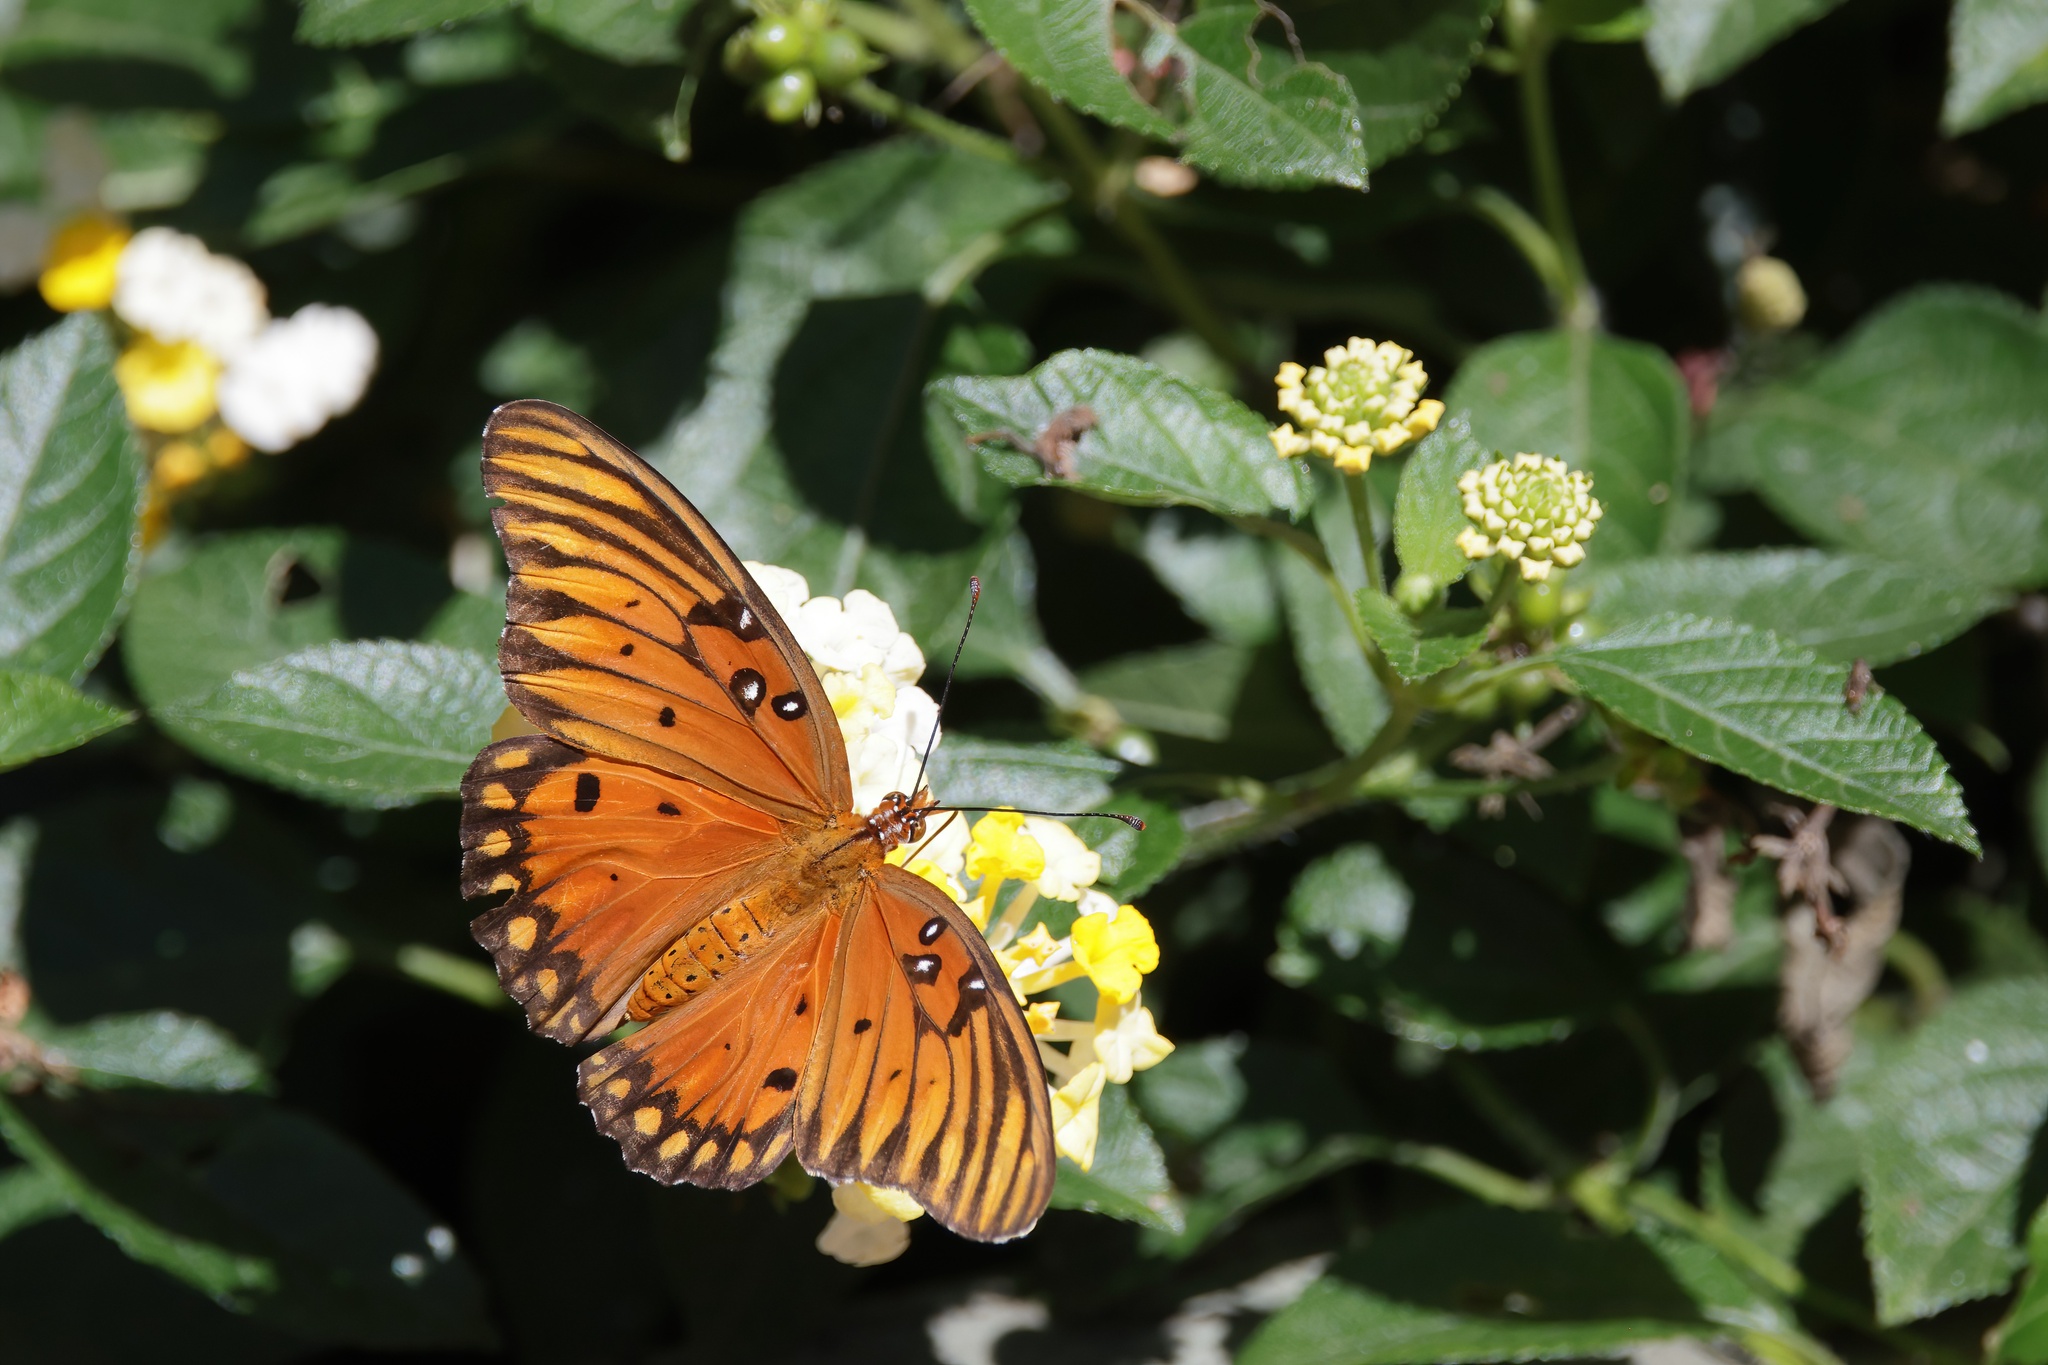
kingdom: Animalia
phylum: Arthropoda
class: Insecta
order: Lepidoptera
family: Nymphalidae
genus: Dione
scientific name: Dione vanillae
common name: Gulf fritillary
